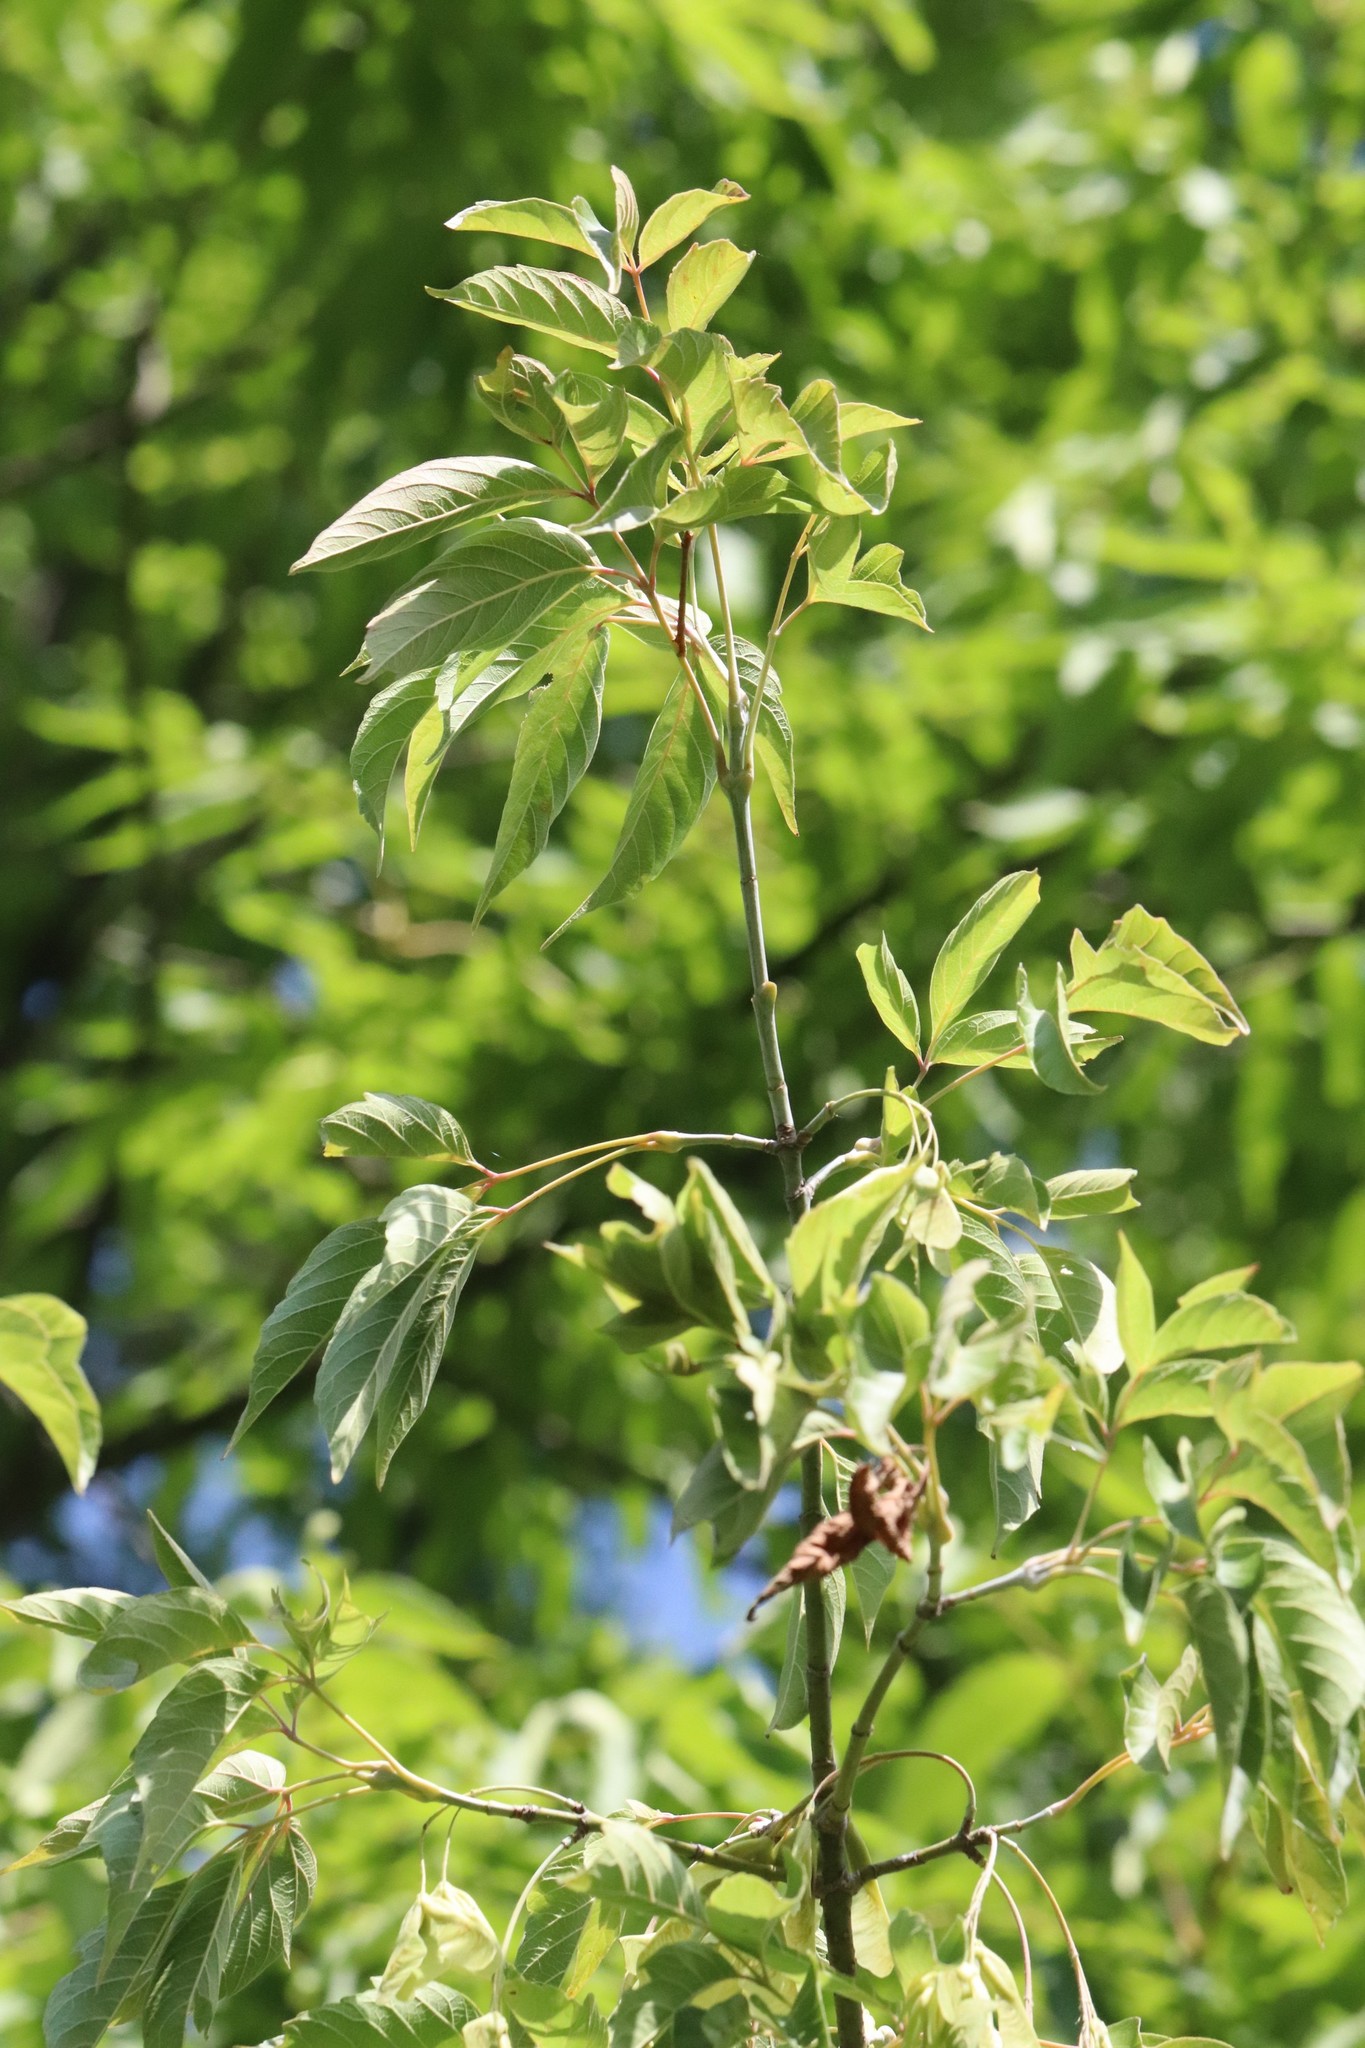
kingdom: Plantae
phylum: Tracheophyta
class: Magnoliopsida
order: Sapindales
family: Sapindaceae
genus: Acer
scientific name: Acer negundo
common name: Ashleaf maple
